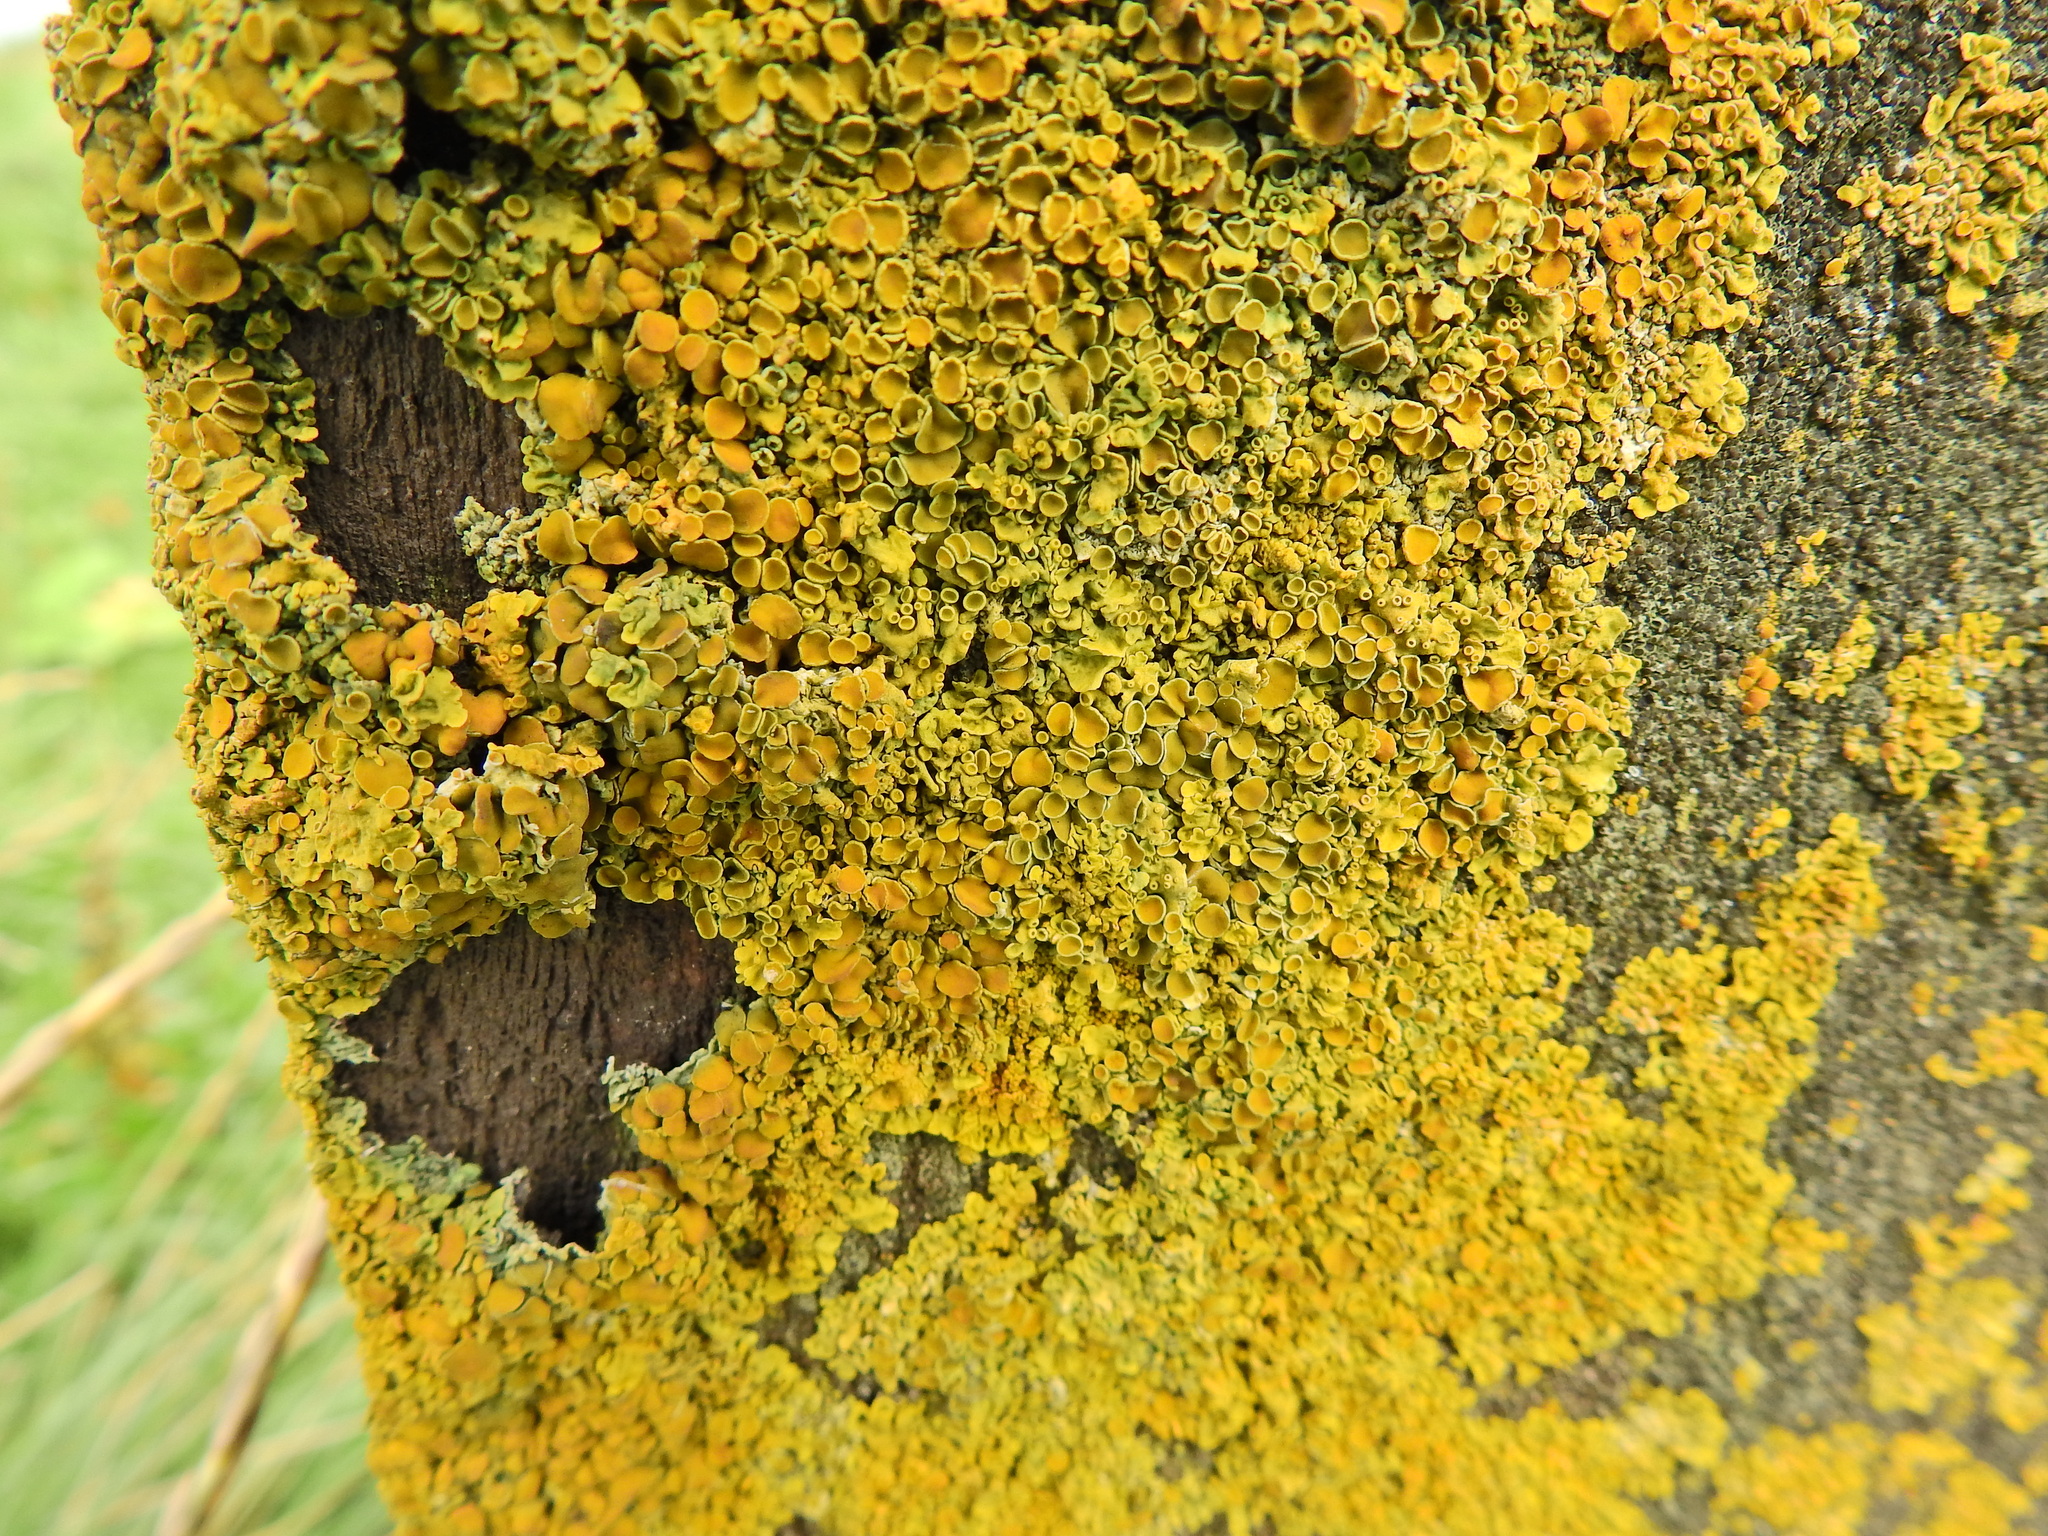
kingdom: Fungi
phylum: Ascomycota
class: Lecanoromycetes
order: Teloschistales
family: Teloschistaceae
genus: Xanthoria
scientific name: Xanthoria parietina
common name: Common orange lichen
